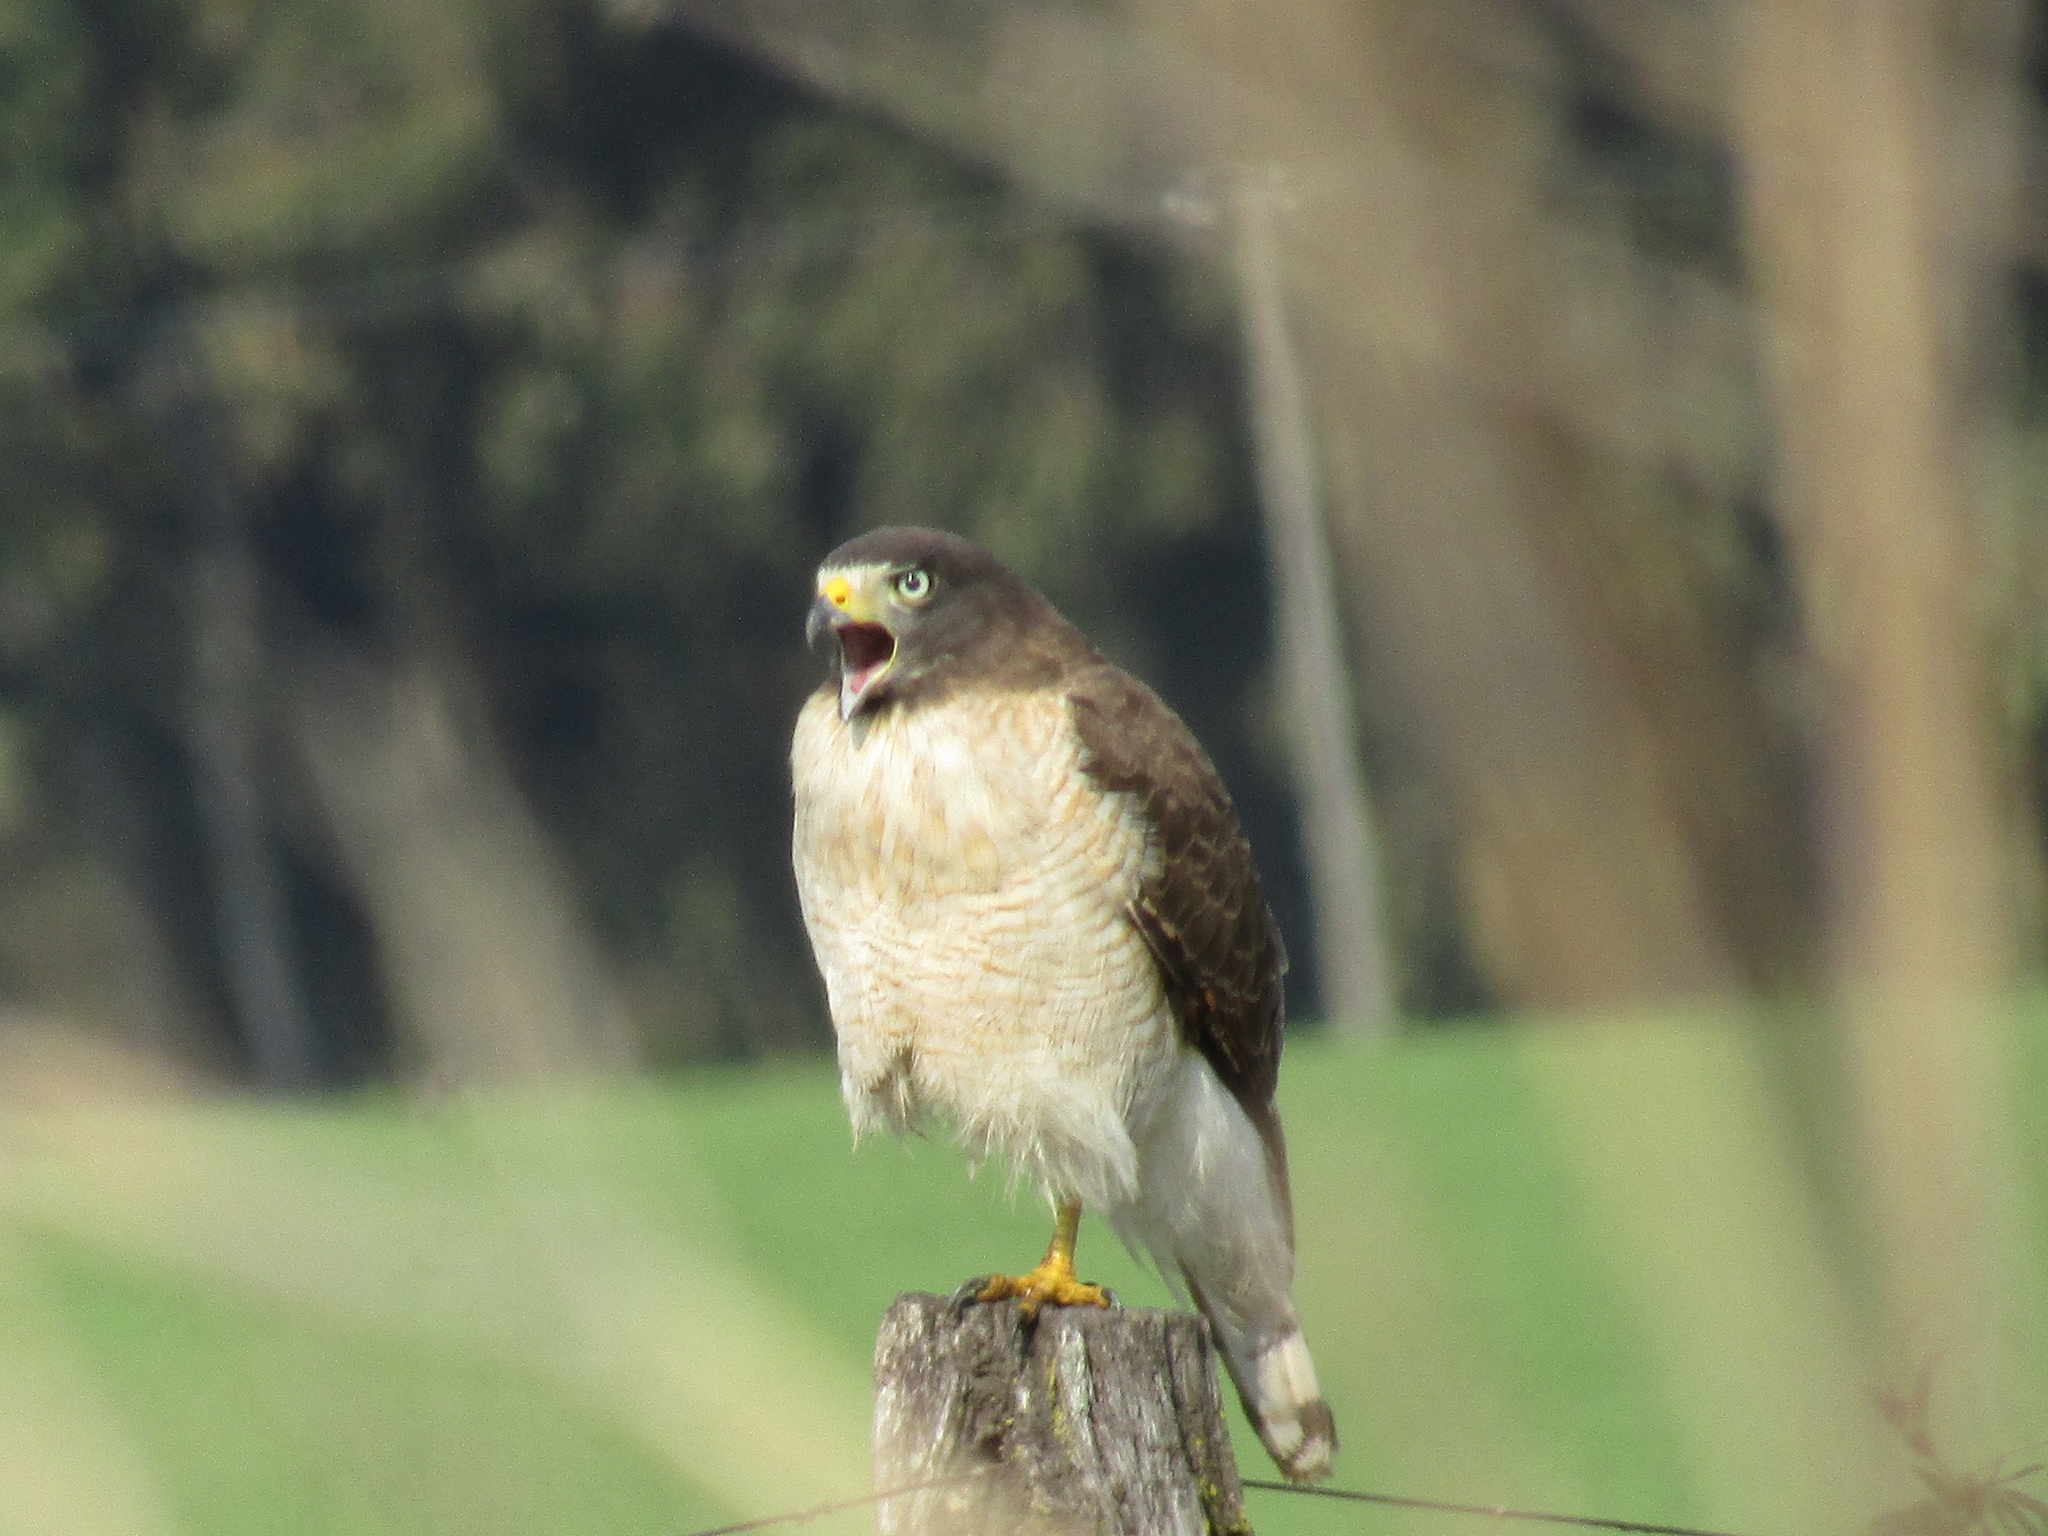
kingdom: Animalia
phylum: Chordata
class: Aves
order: Accipitriformes
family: Accipitridae
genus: Rupornis
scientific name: Rupornis magnirostris
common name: Roadside hawk
